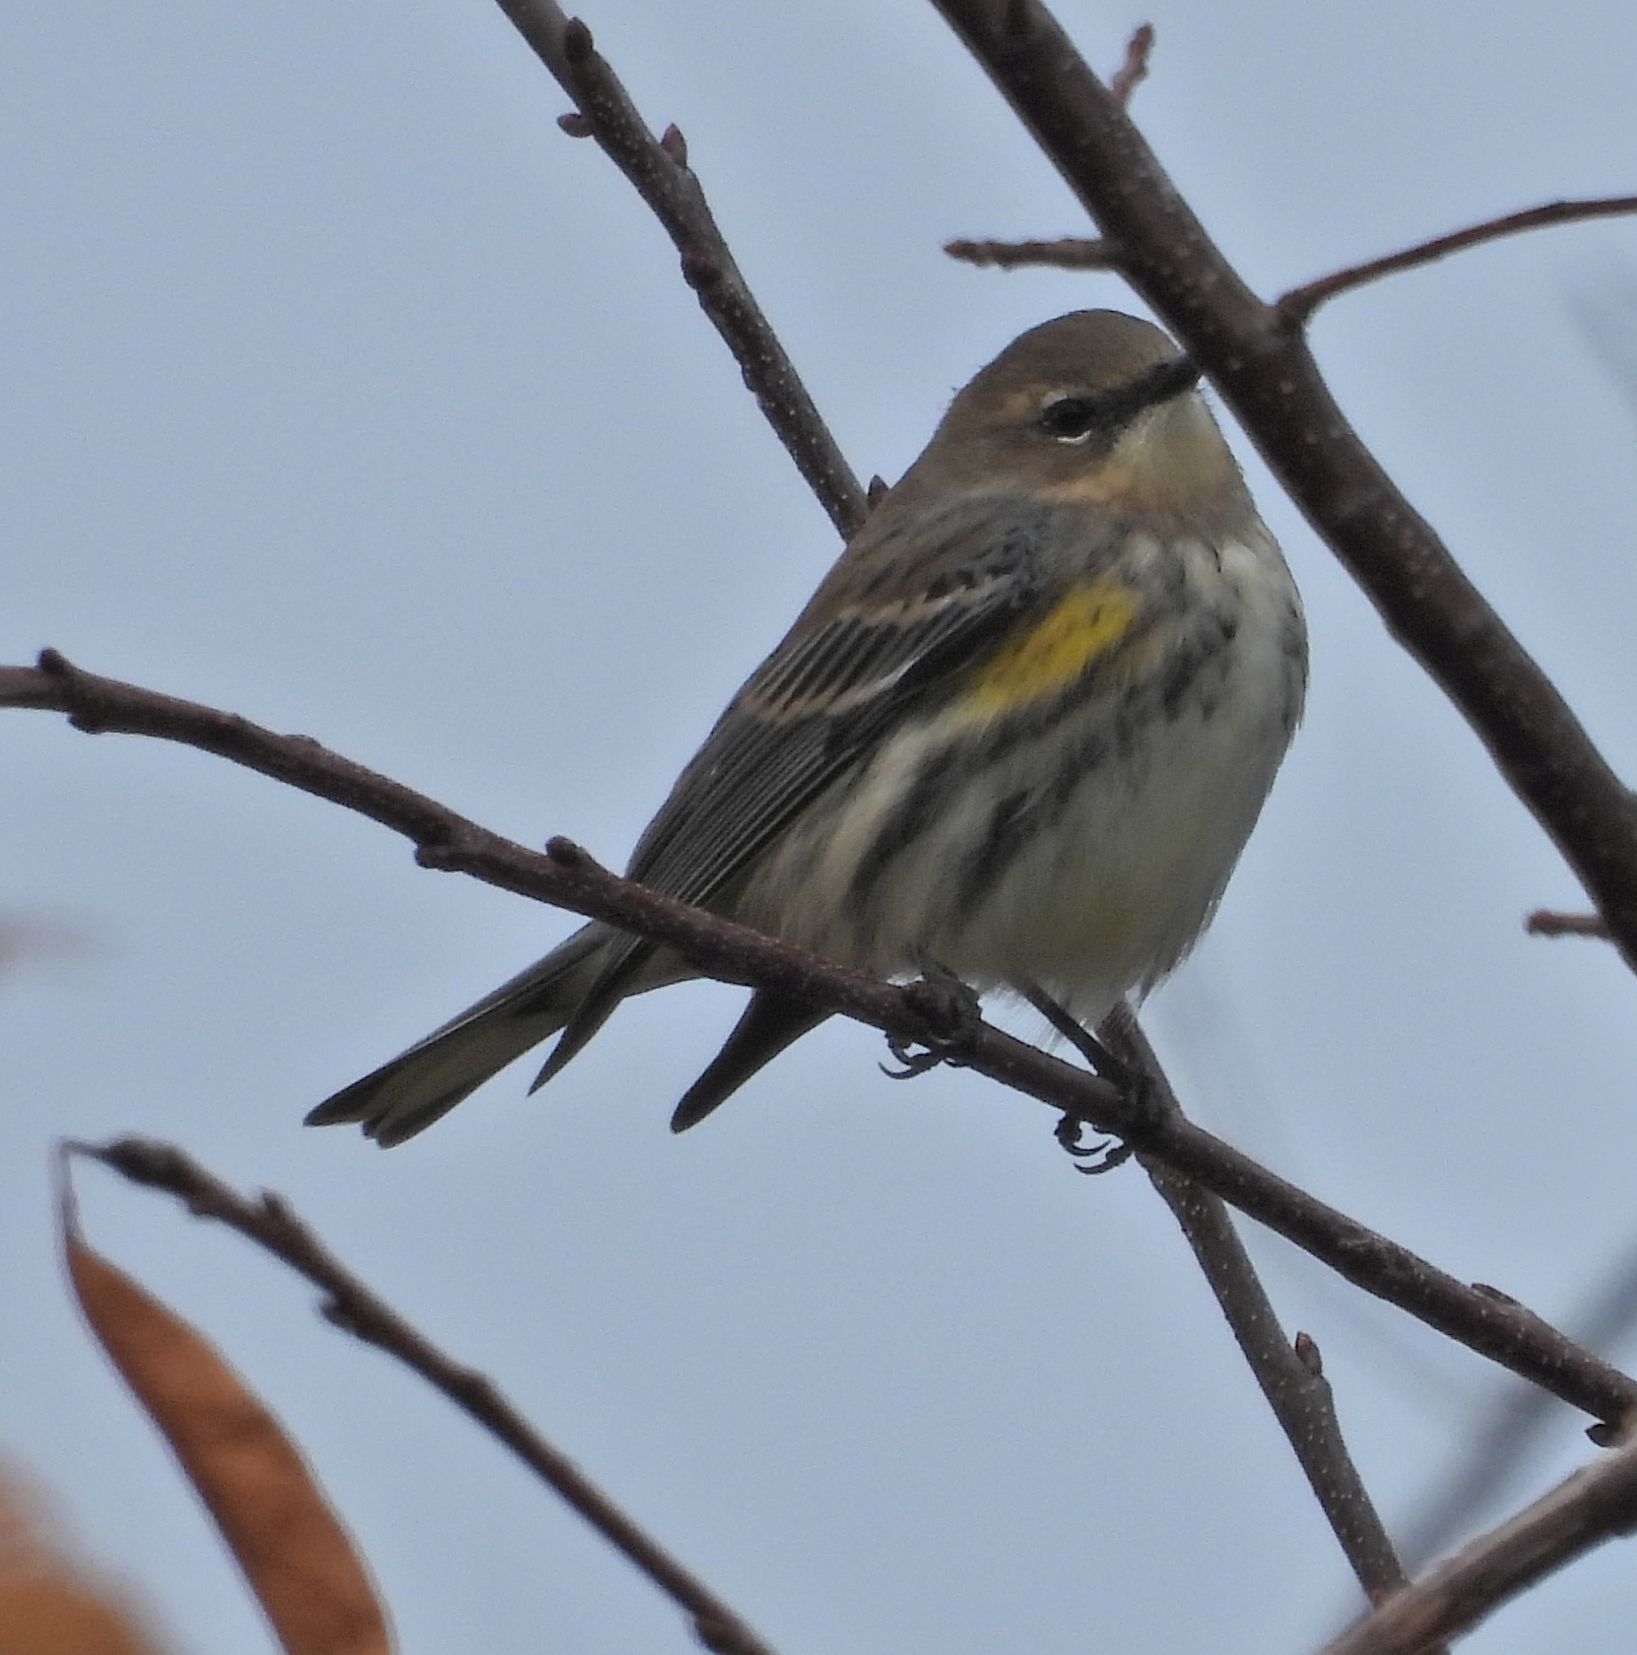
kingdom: Animalia
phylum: Chordata
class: Aves
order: Passeriformes
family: Parulidae
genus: Setophaga
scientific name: Setophaga coronata
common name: Myrtle warbler
